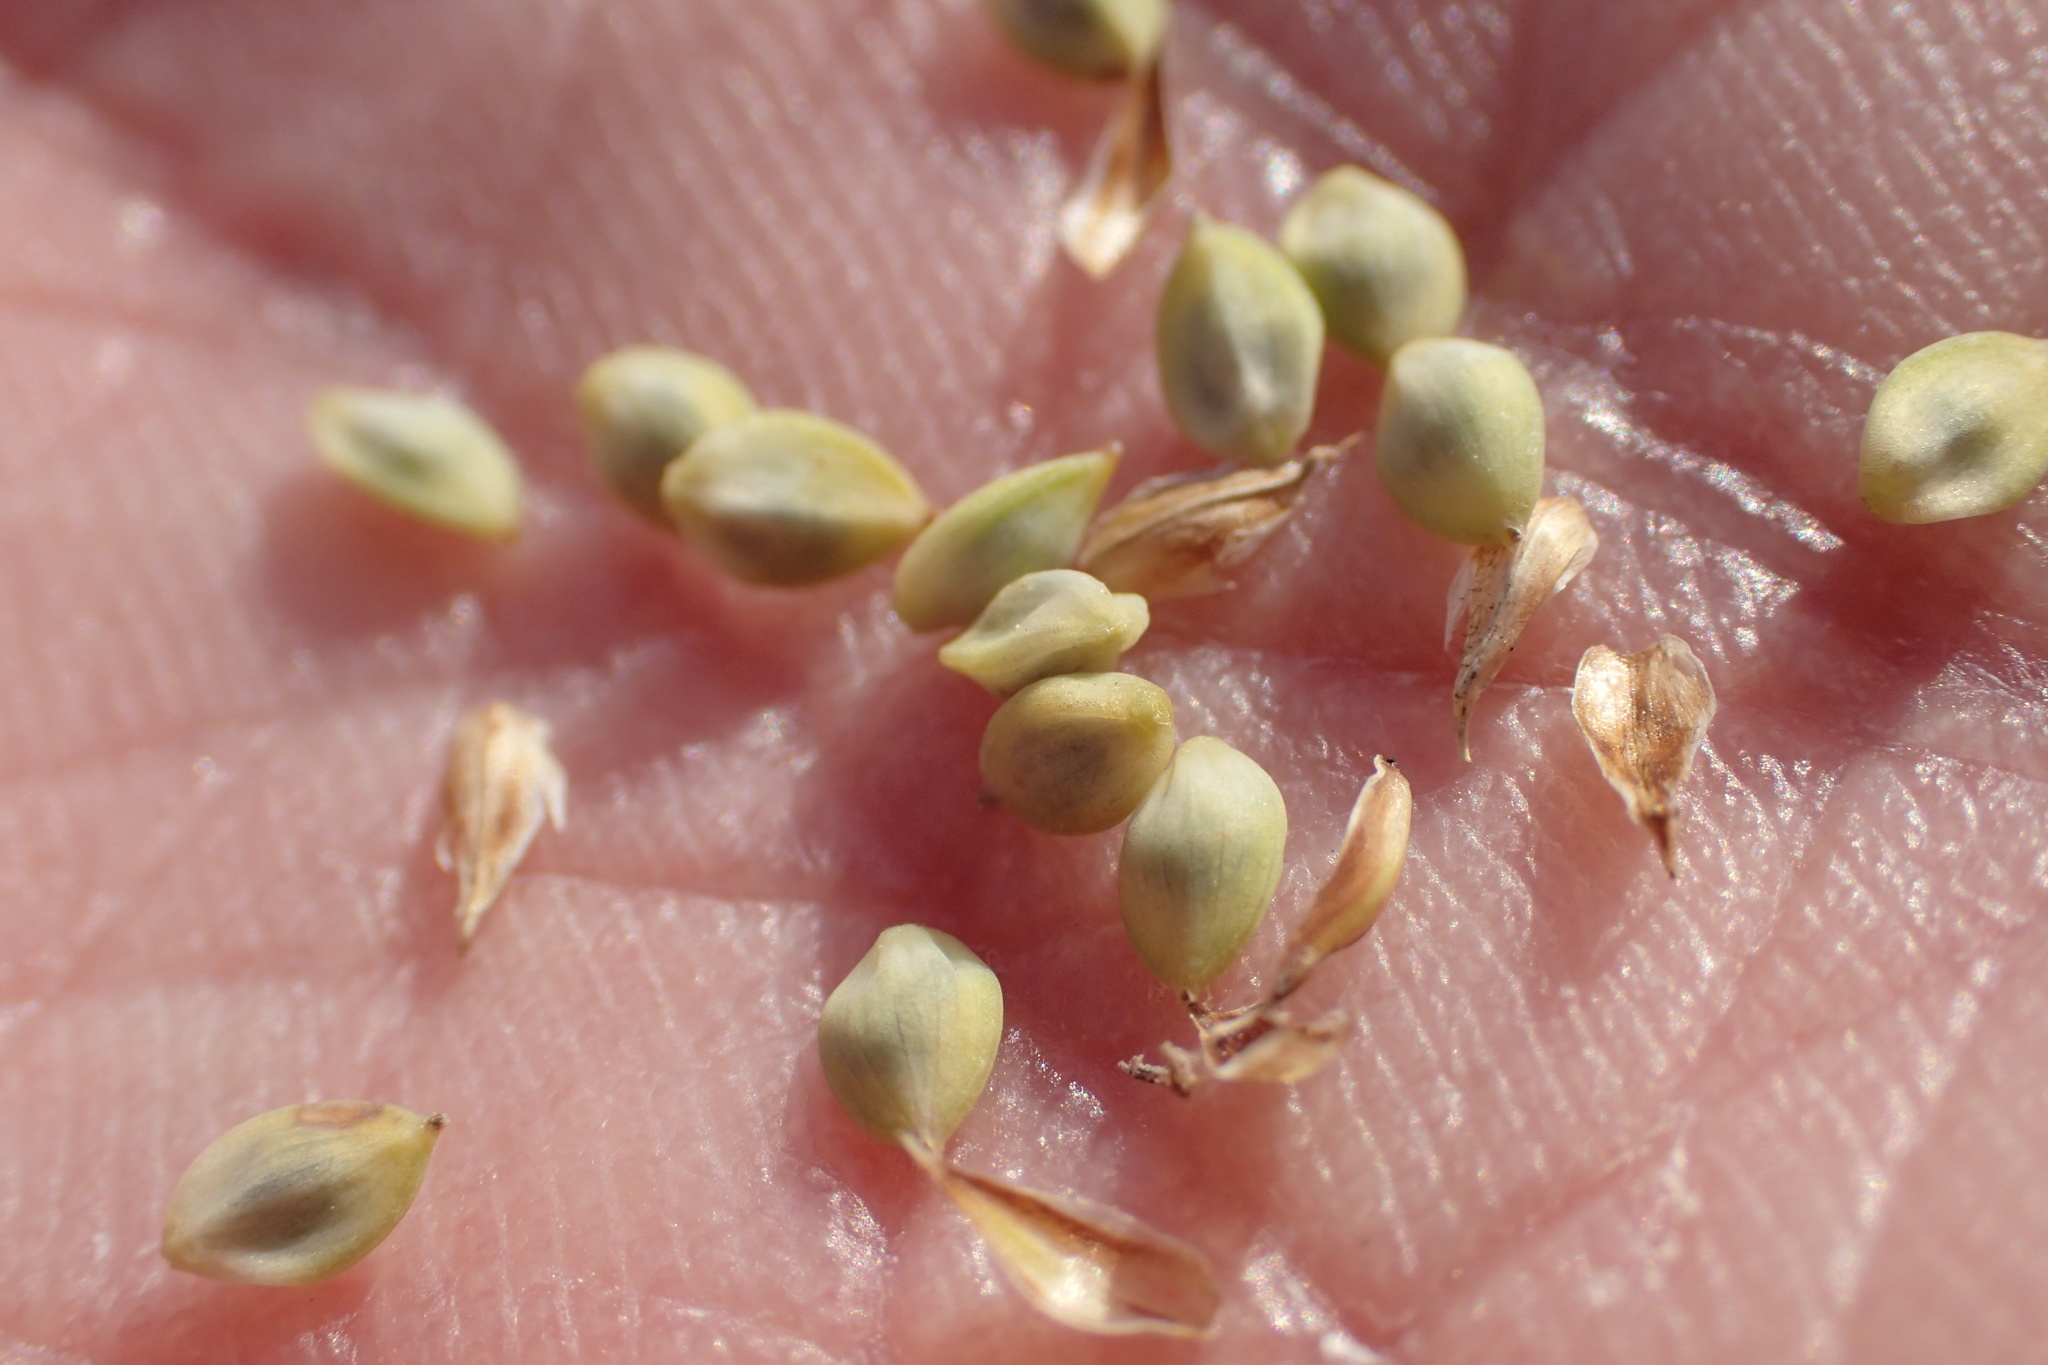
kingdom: Plantae
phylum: Tracheophyta
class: Liliopsida
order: Poales
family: Cyperaceae
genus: Carex
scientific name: Carex buxbaumii
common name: Club sedge
